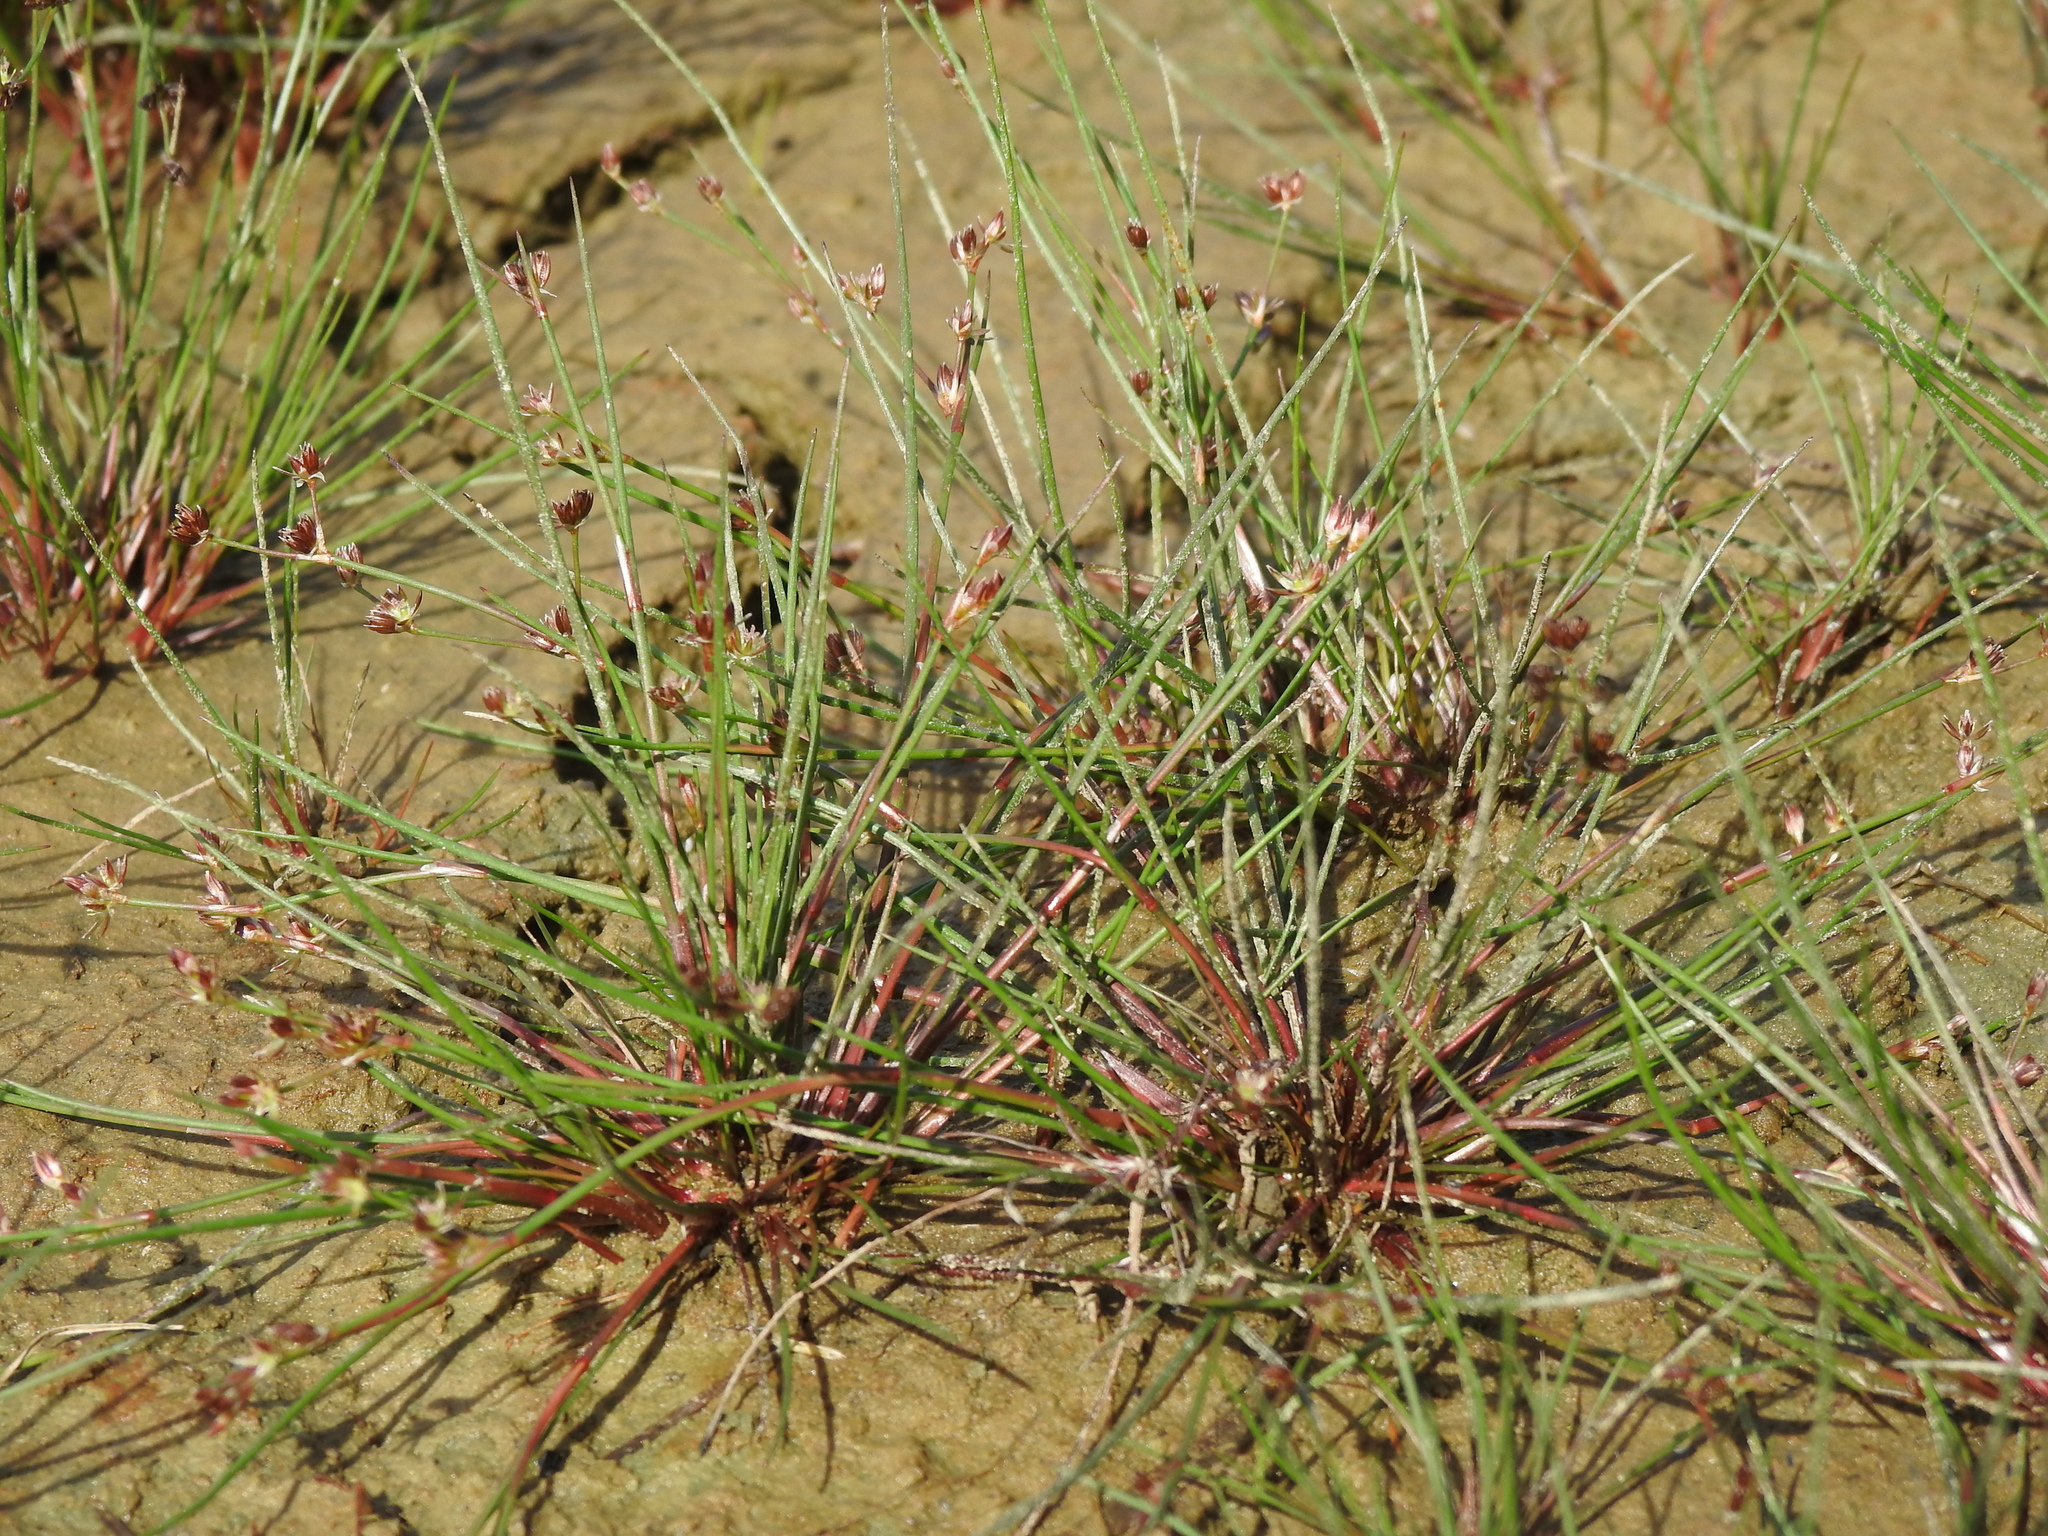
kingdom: Plantae
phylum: Tracheophyta
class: Liliopsida
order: Poales
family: Juncaceae
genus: Juncus
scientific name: Juncus bulbosus
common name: Bulbous rush
